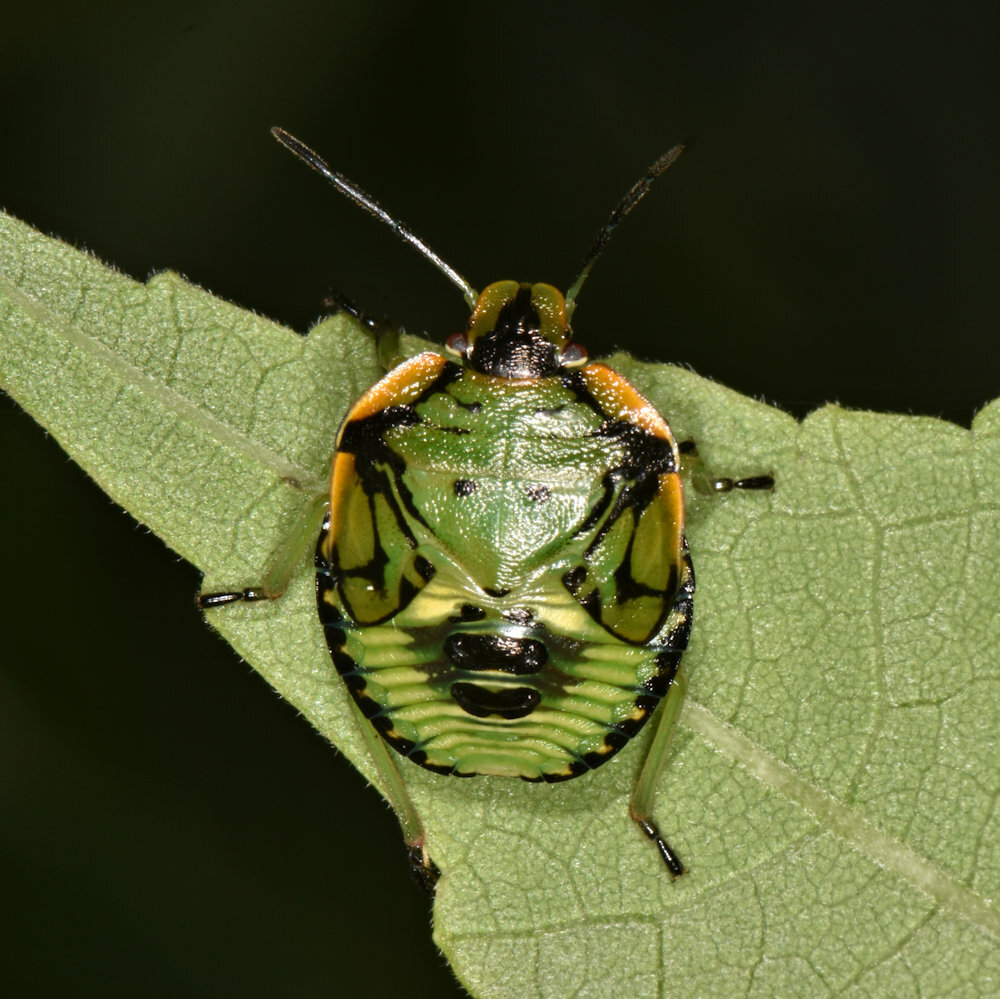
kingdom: Animalia
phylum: Arthropoda
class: Insecta
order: Hemiptera
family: Pentatomidae
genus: Chinavia
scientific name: Chinavia hilaris
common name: Green stink bug
